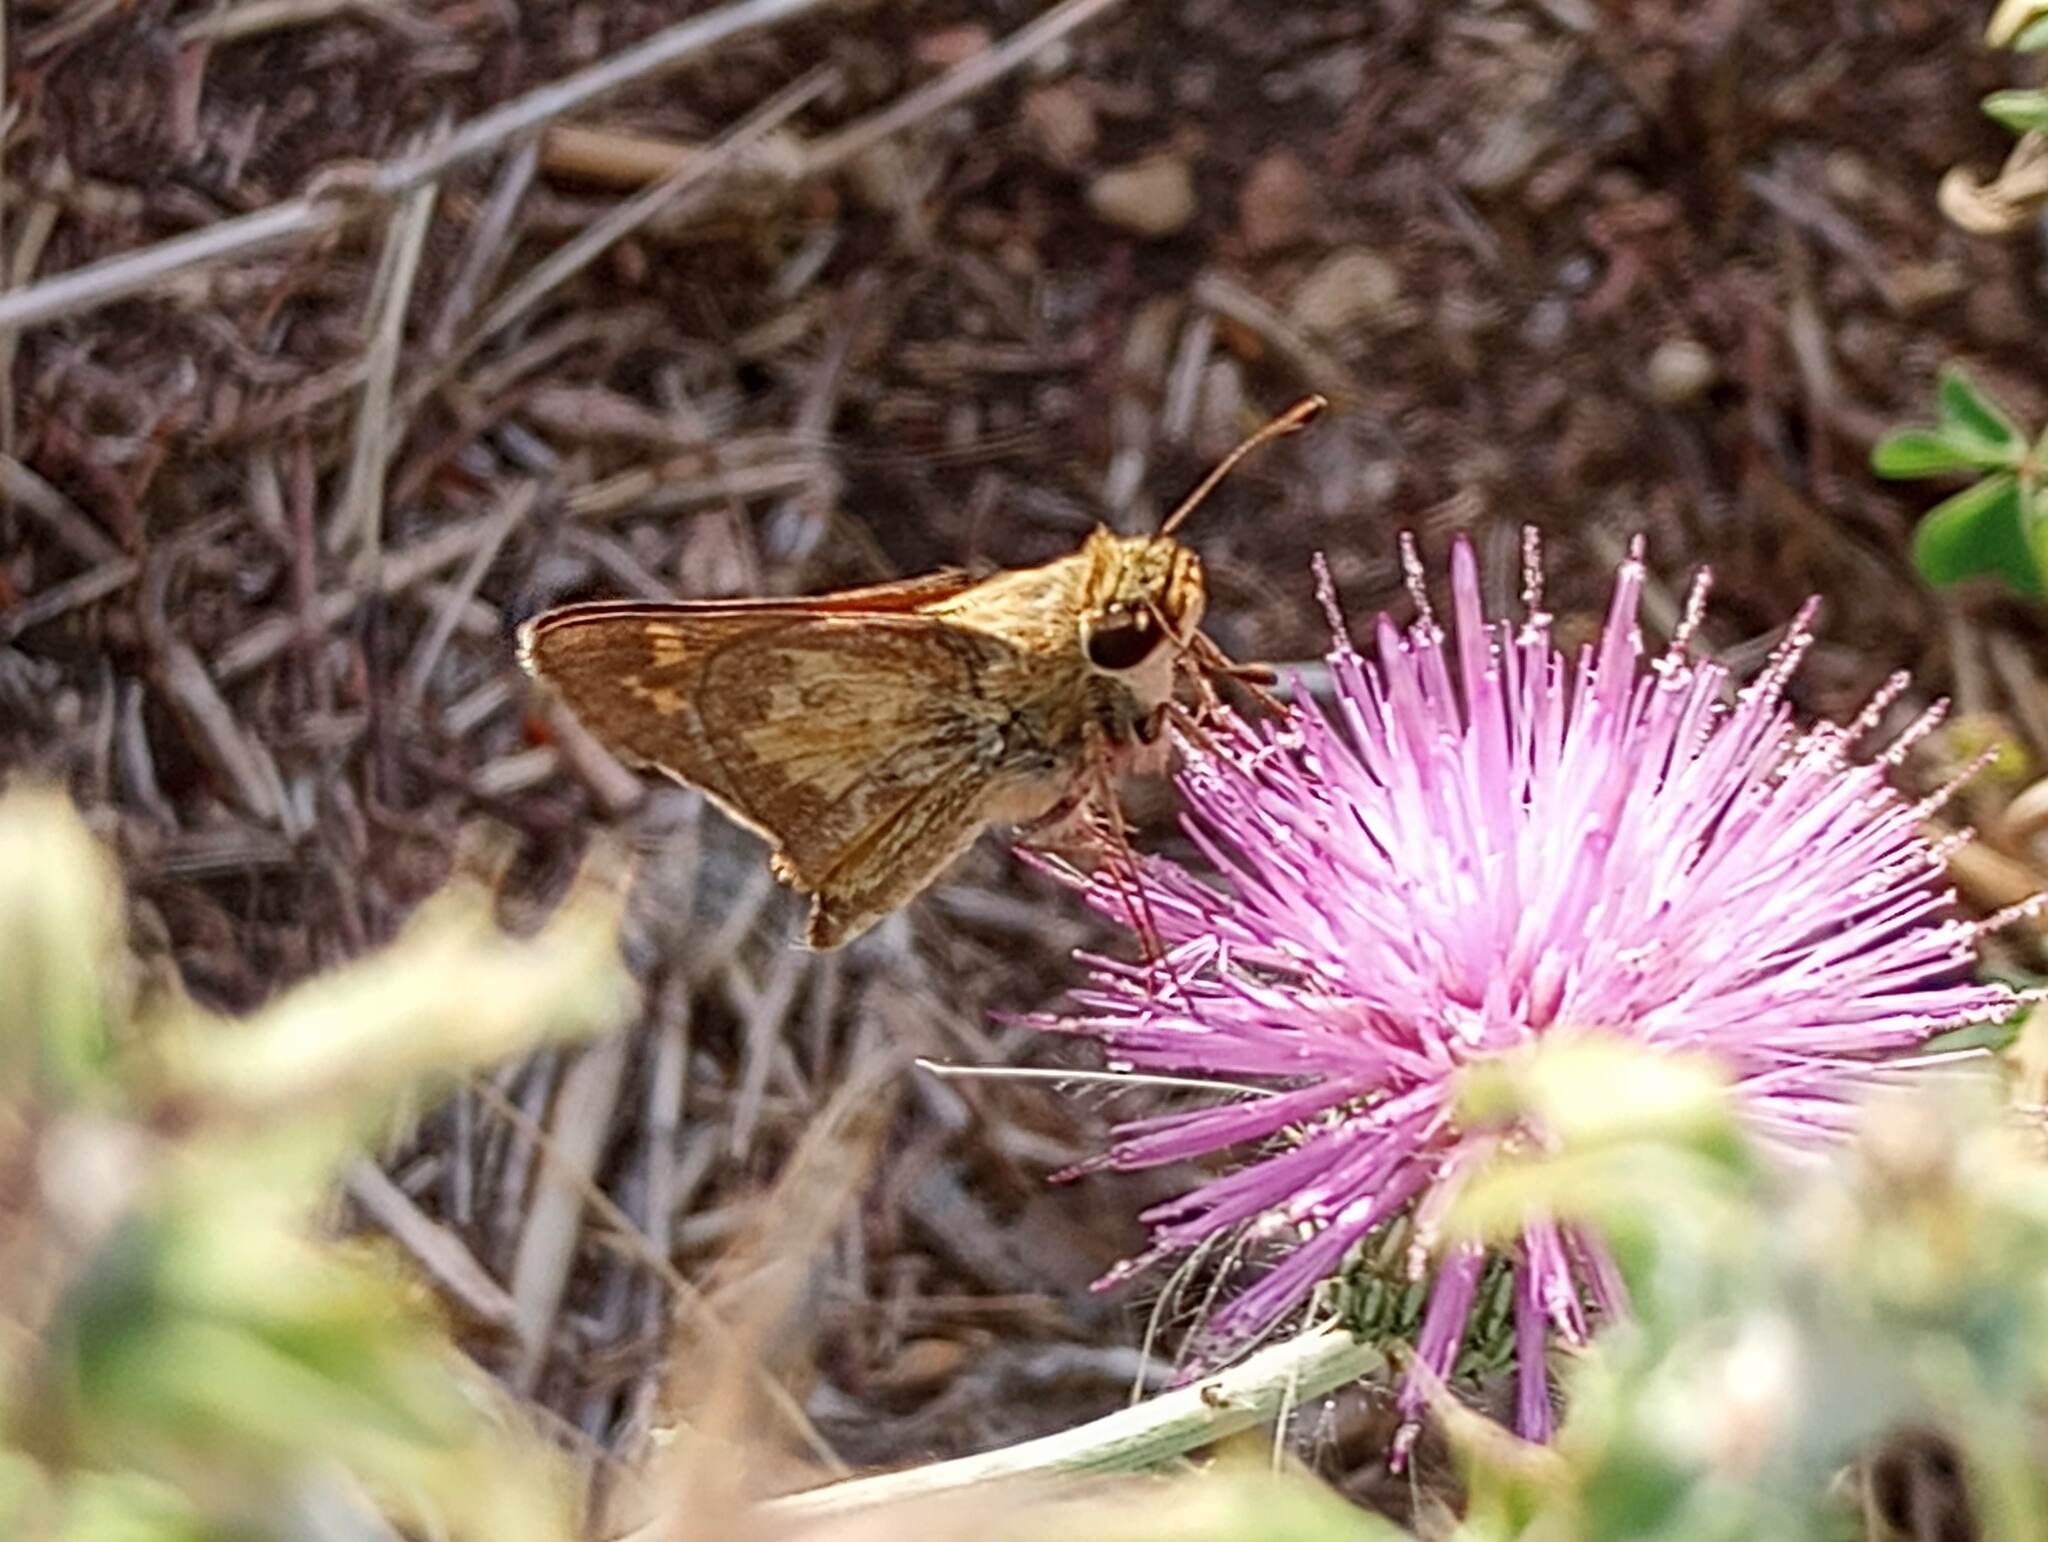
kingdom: Animalia
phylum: Arthropoda
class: Insecta
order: Lepidoptera
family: Hesperiidae
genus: Atalopedes
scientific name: Atalopedes
